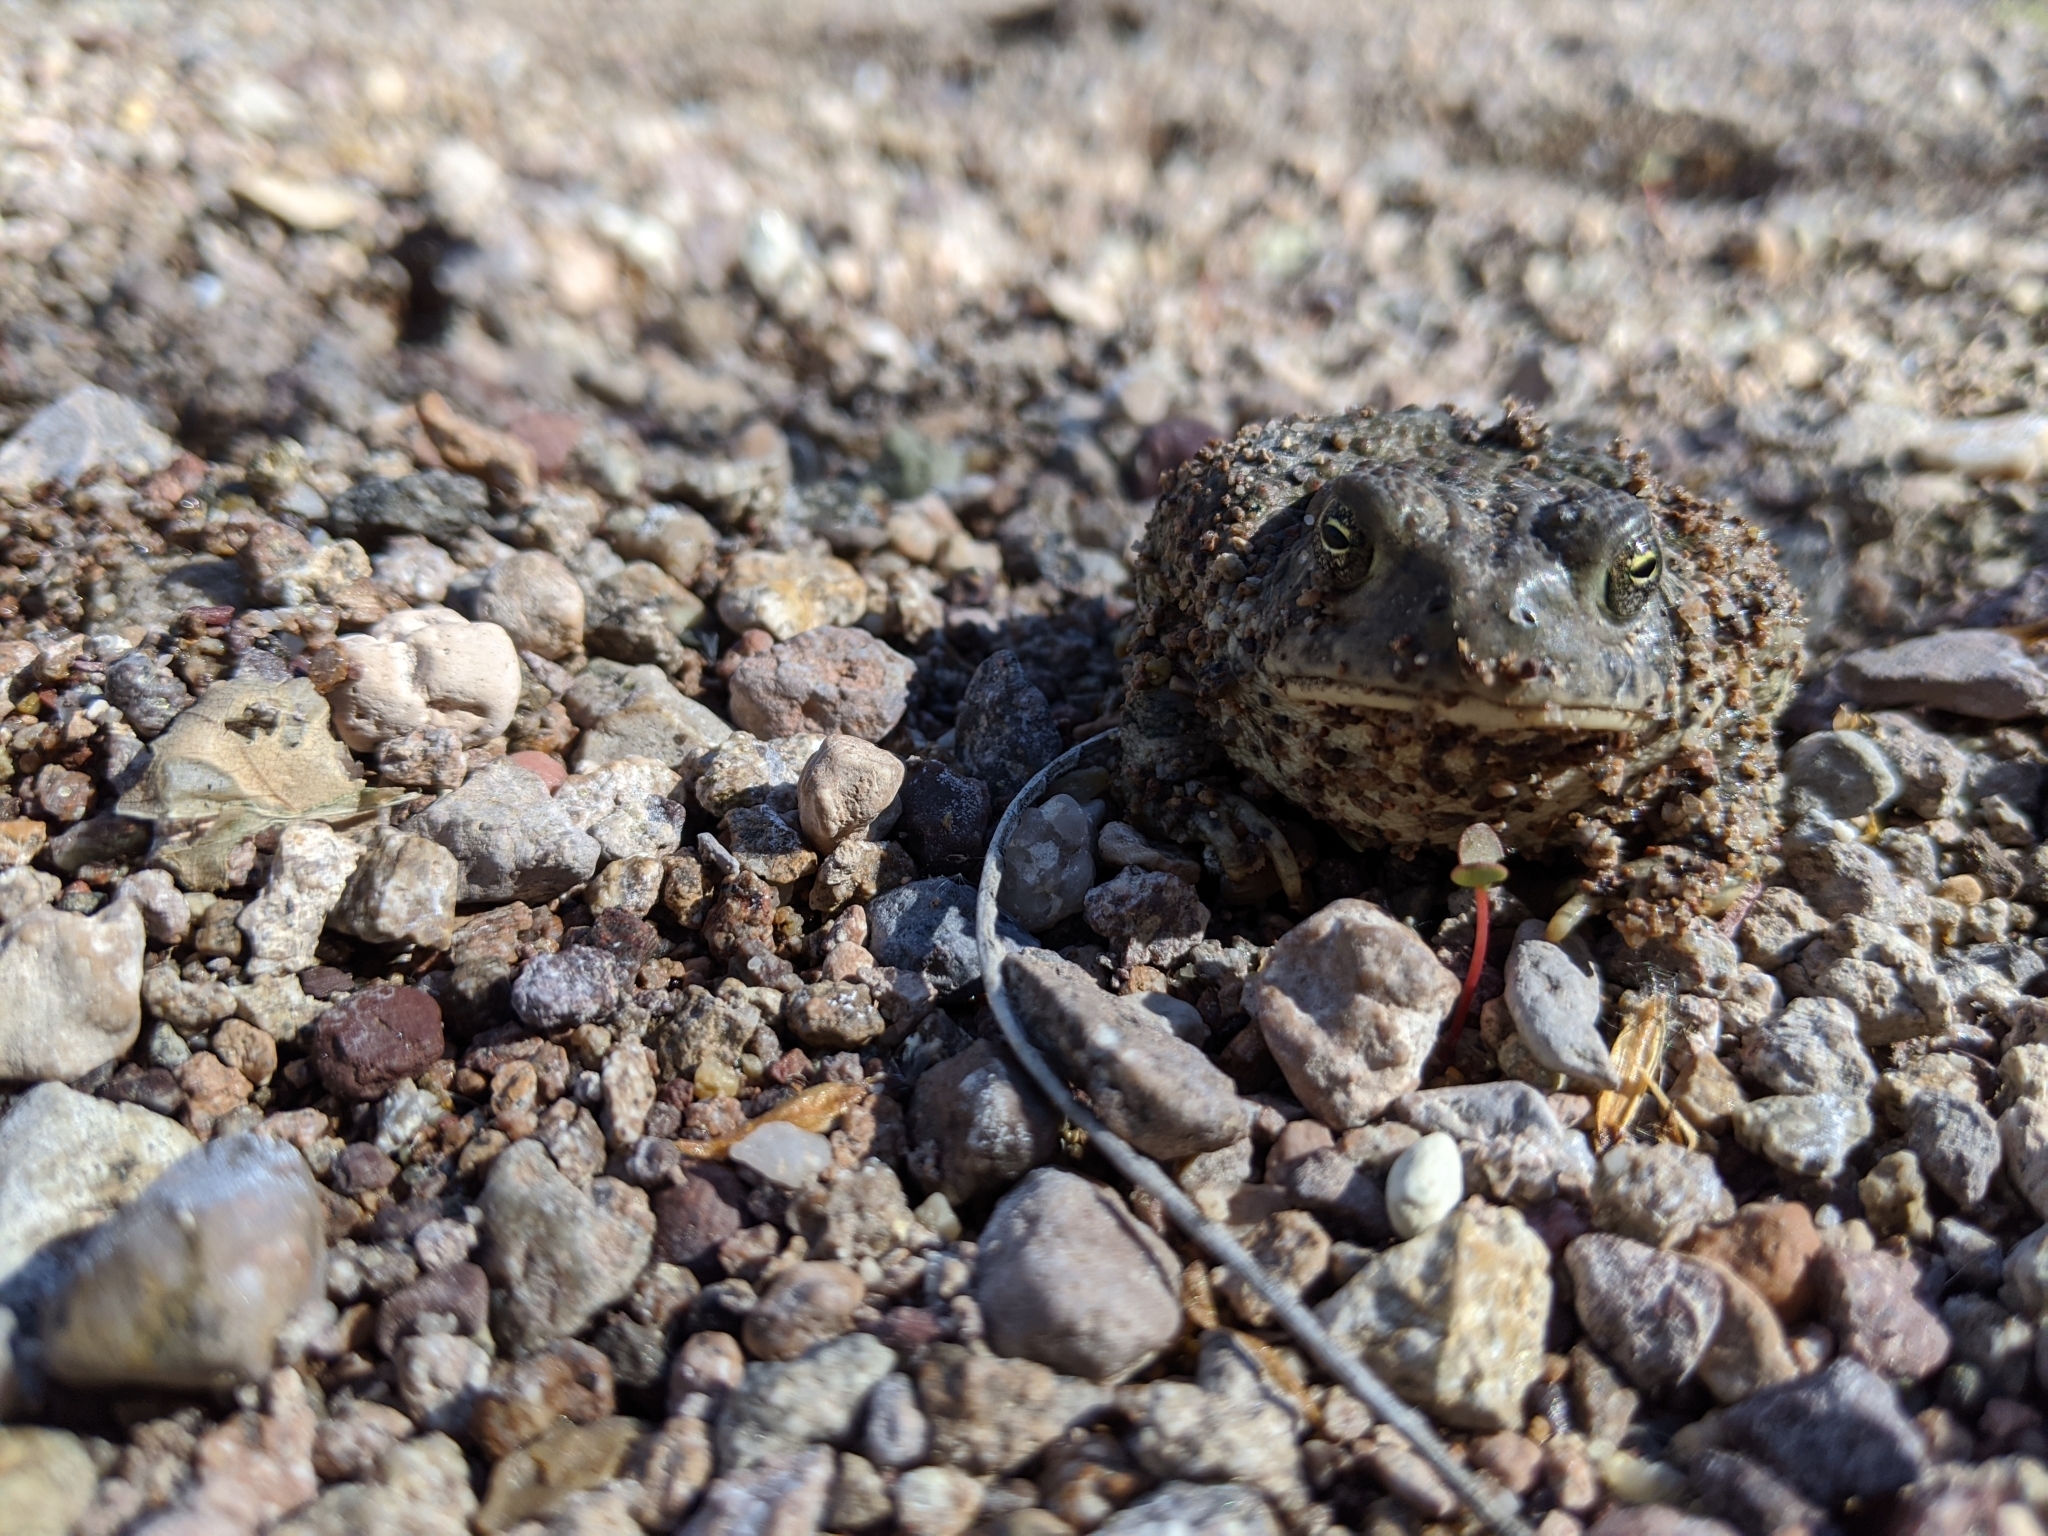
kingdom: Animalia
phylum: Chordata
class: Amphibia
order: Anura
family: Bufonidae
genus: Anaxyrus
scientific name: Anaxyrus woodhousii
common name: Woodhouse's toad
